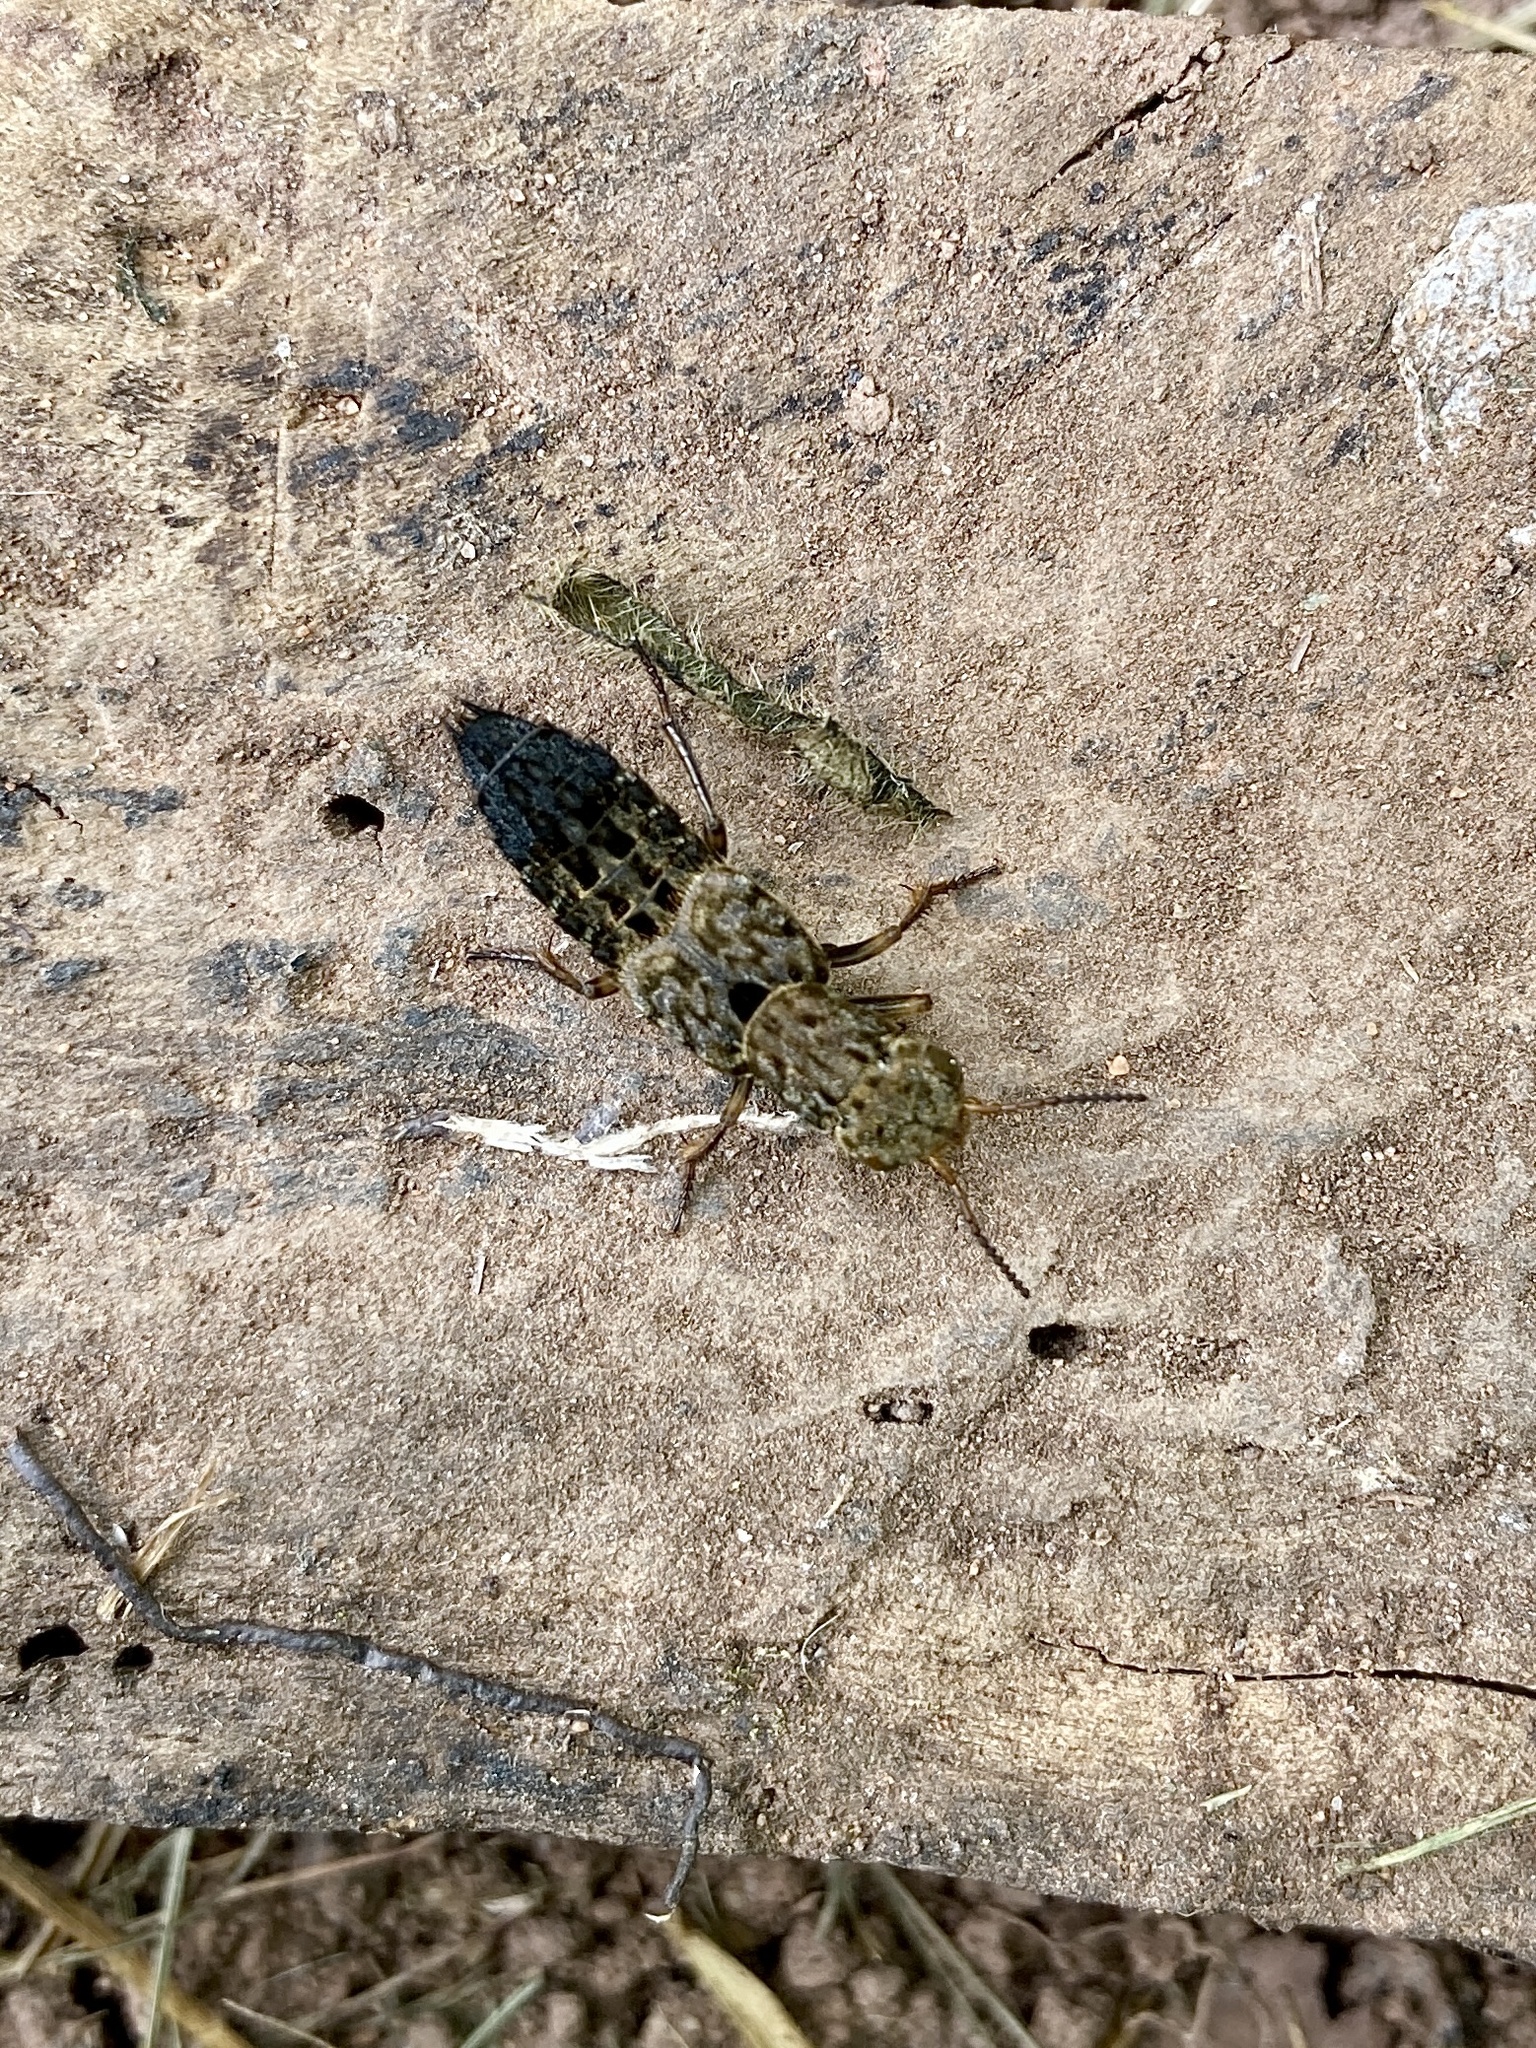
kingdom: Animalia
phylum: Arthropoda
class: Insecta
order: Coleoptera
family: Staphylinidae
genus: Ontholestes
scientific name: Ontholestes tessellatus
